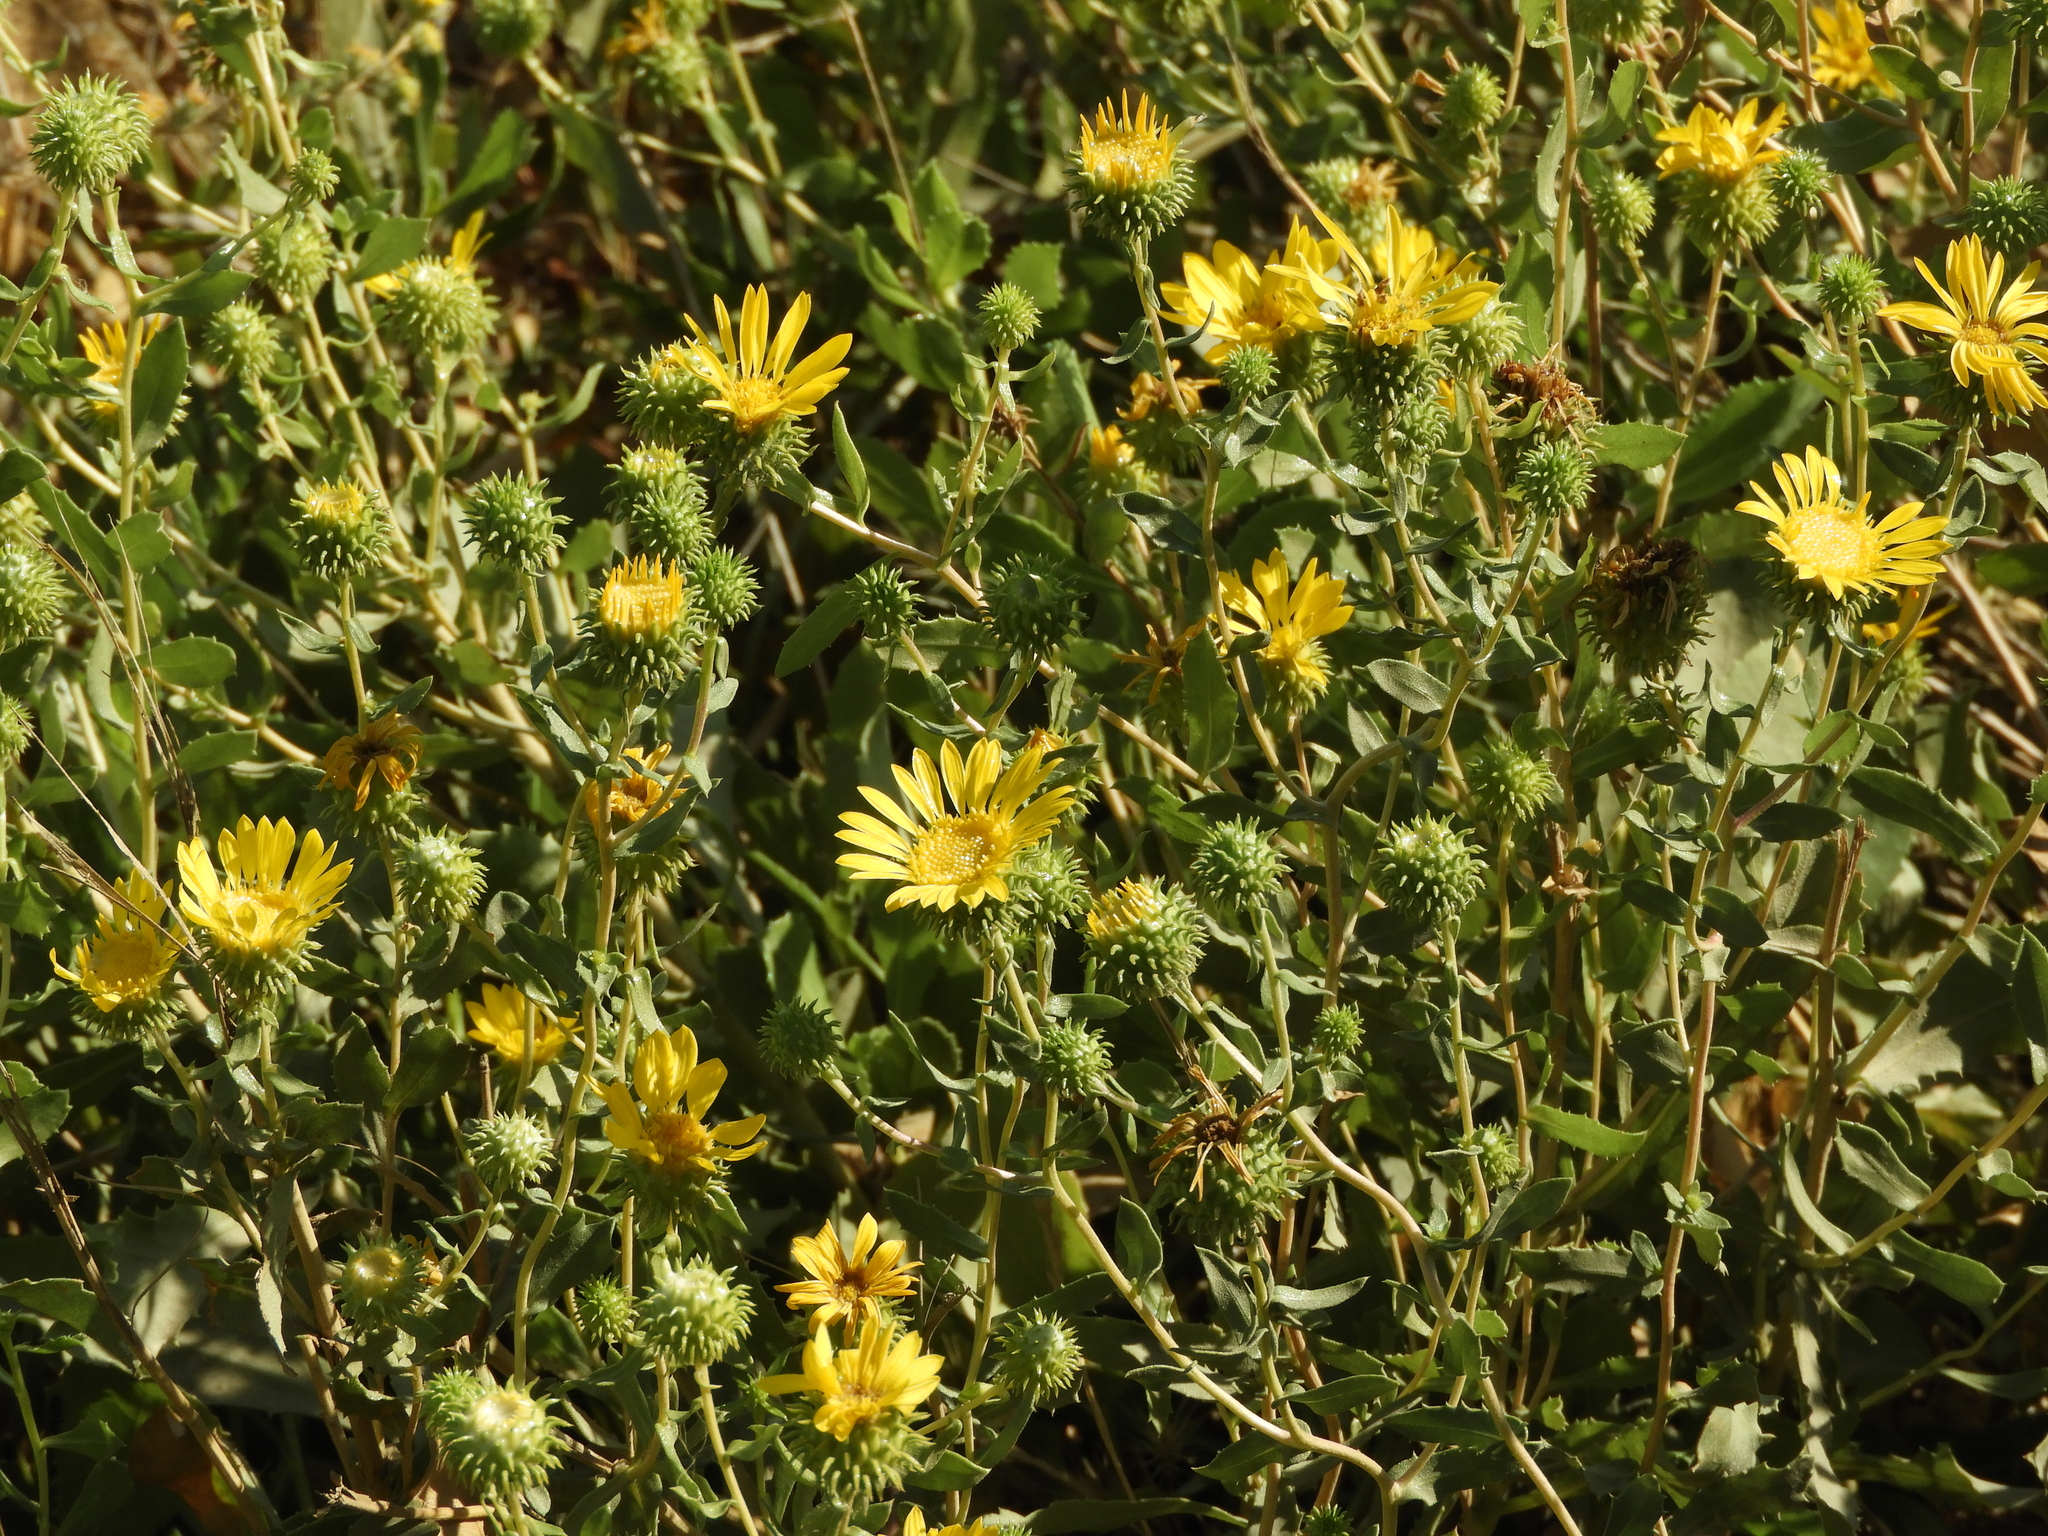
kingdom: Plantae
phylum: Tracheophyta
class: Magnoliopsida
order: Asterales
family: Asteraceae
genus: Grindelia
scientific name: Grindelia hirsutula
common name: Hairy gumweed
